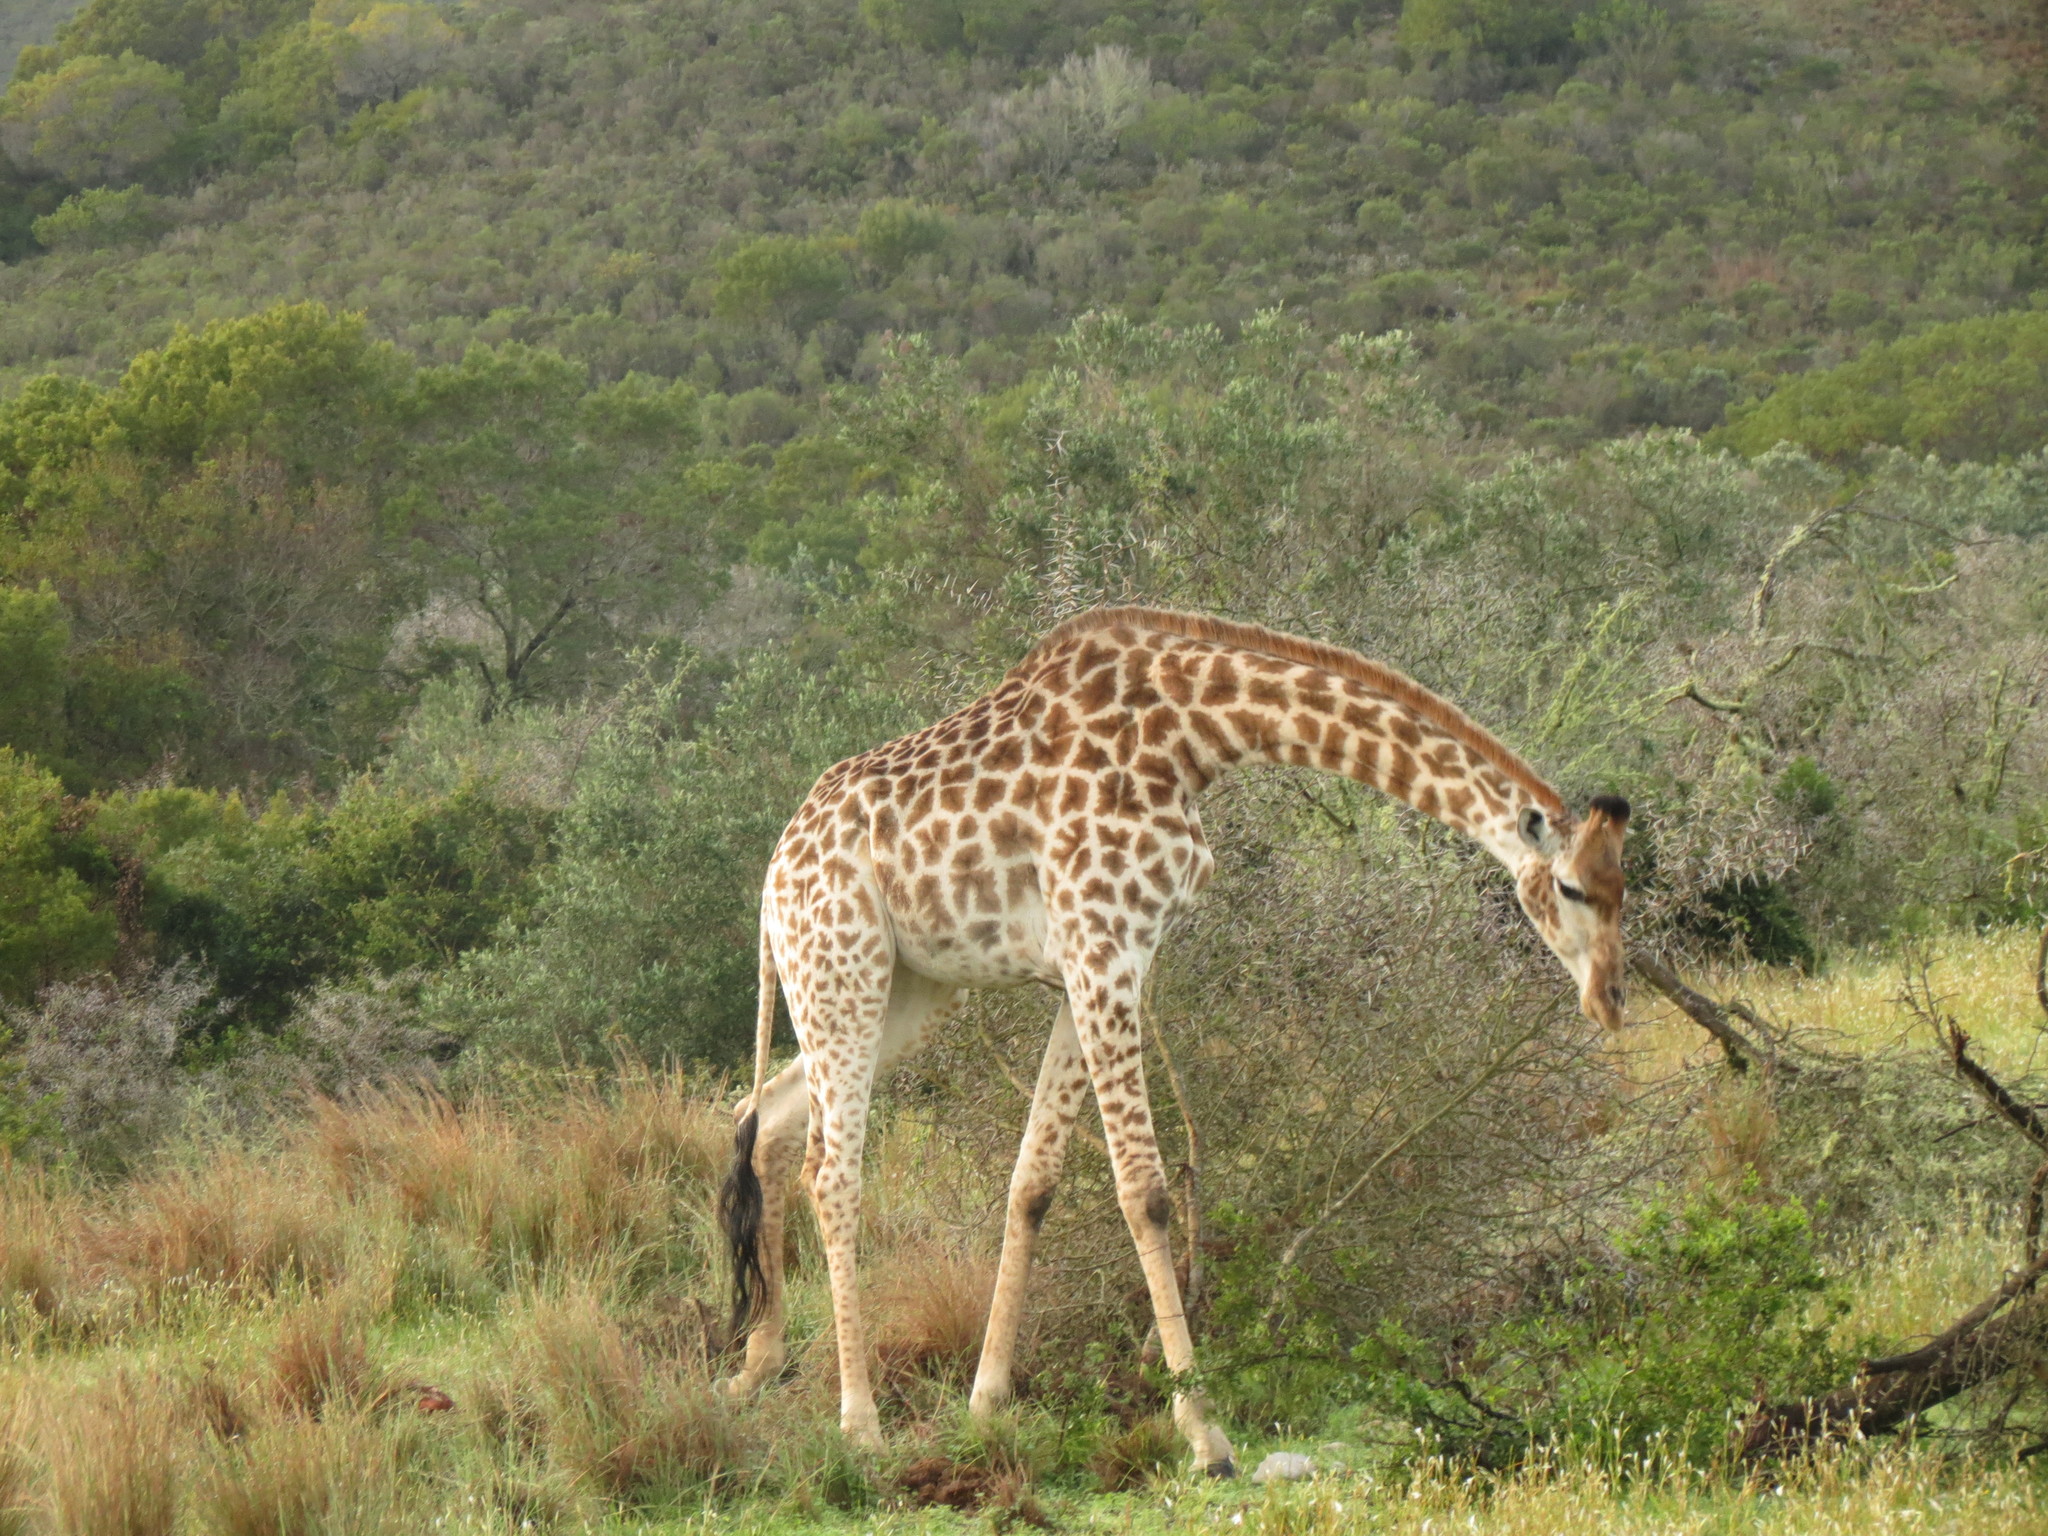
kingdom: Animalia
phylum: Chordata
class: Mammalia
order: Artiodactyla
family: Giraffidae
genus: Giraffa
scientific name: Giraffa giraffa
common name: Southern giraffe
